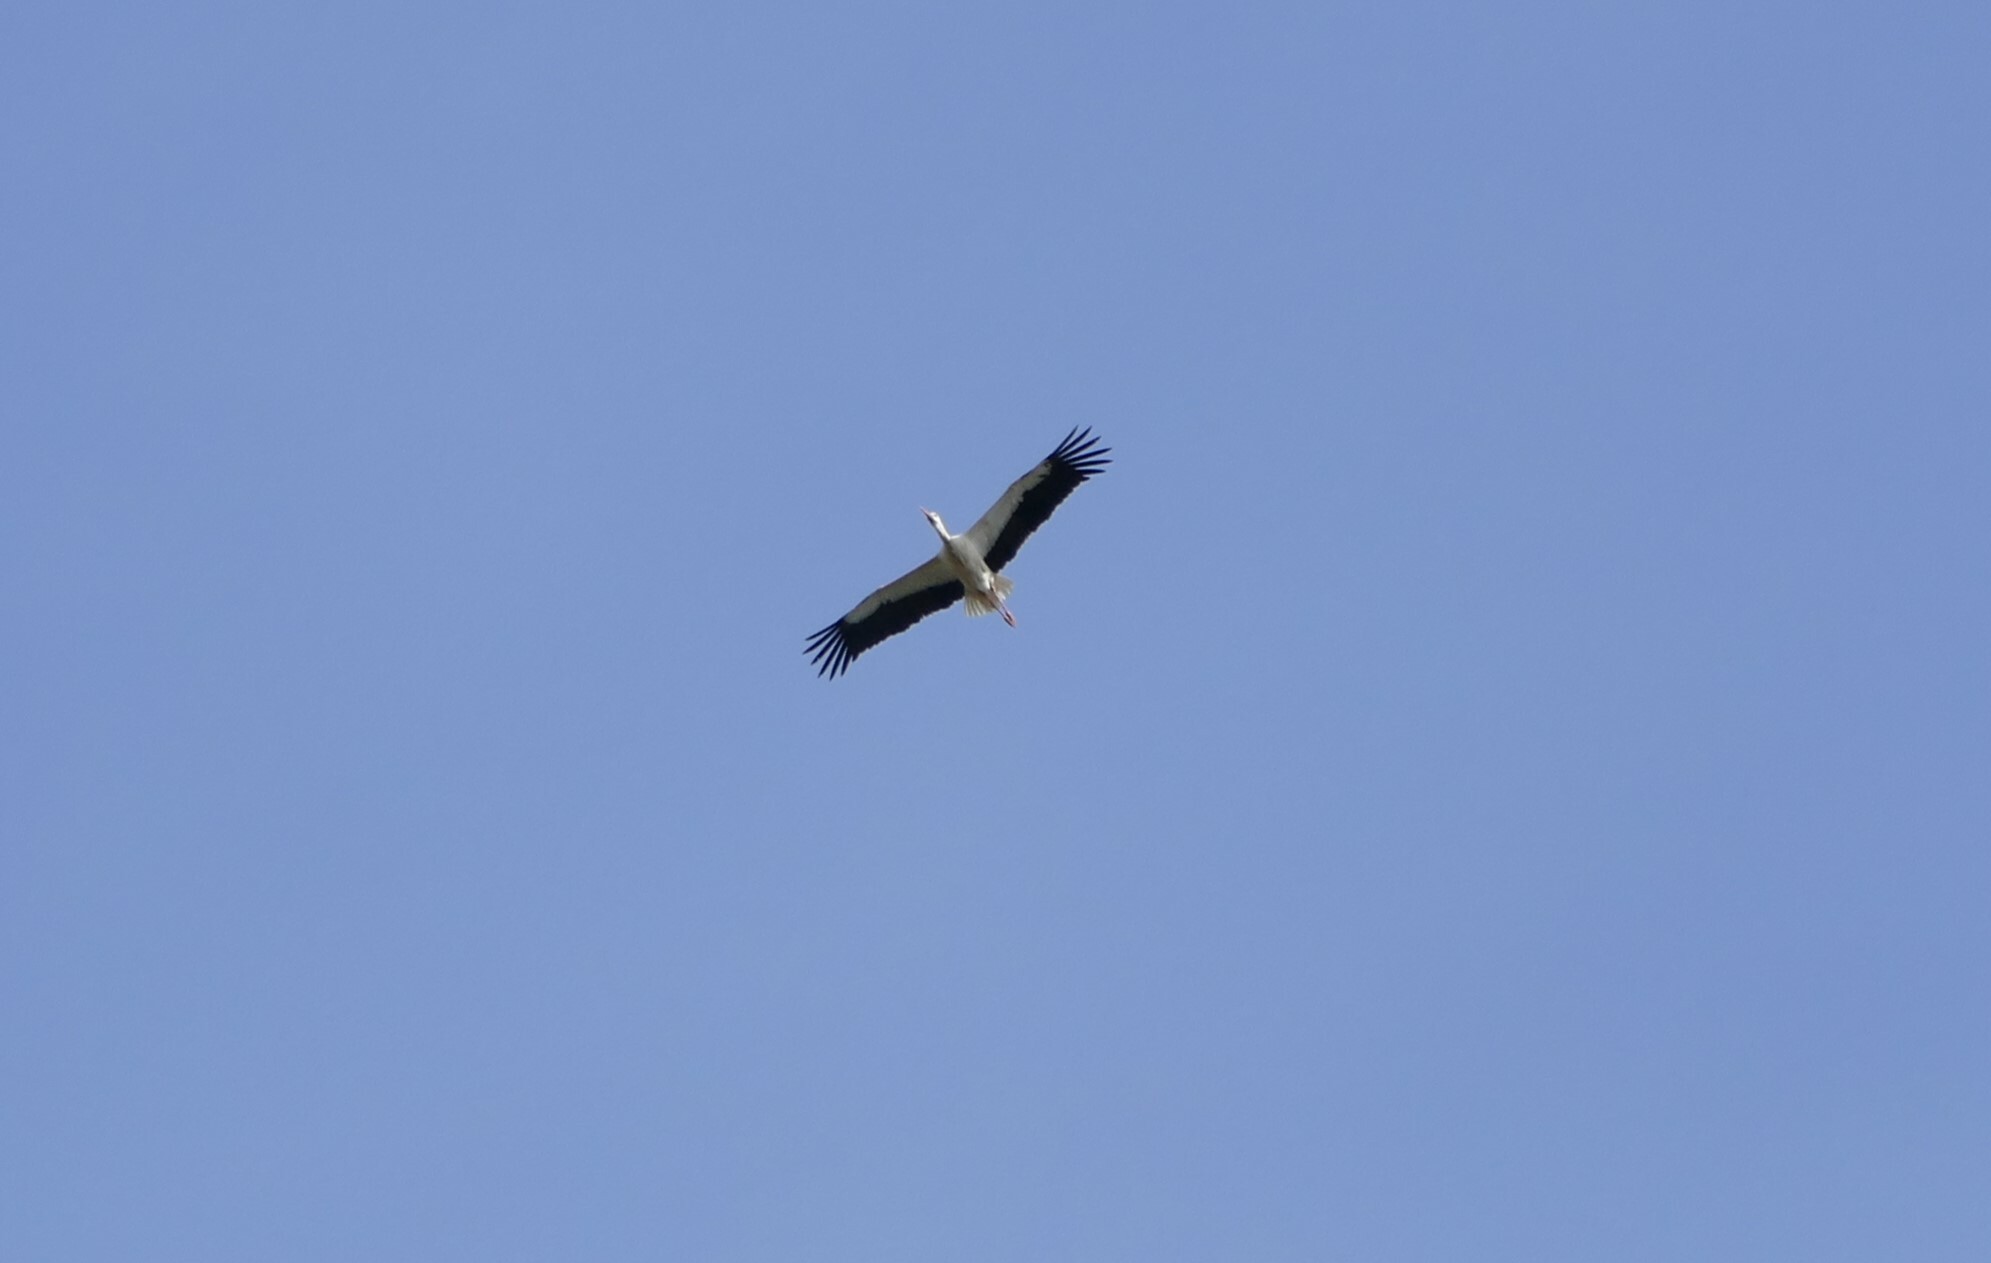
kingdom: Animalia
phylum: Chordata
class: Aves
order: Ciconiiformes
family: Ciconiidae
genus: Ciconia
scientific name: Ciconia ciconia
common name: White stork
